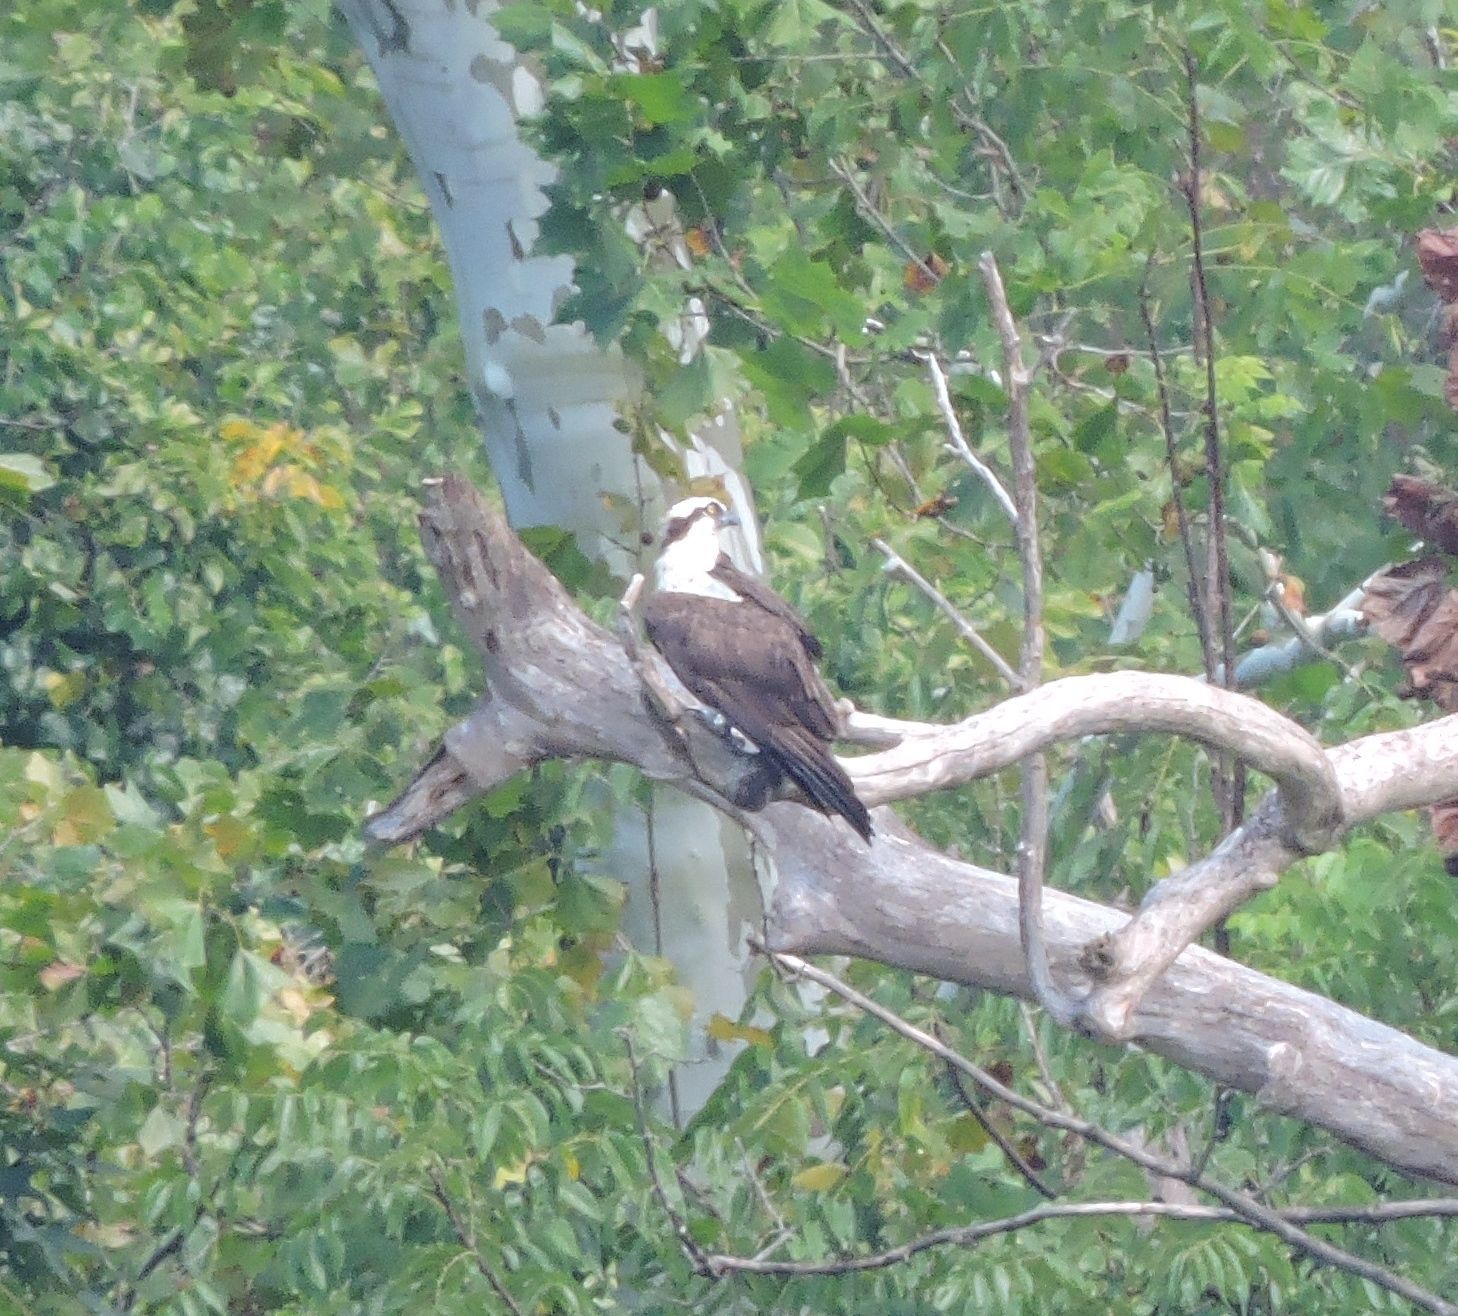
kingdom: Animalia
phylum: Chordata
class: Aves
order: Accipitriformes
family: Pandionidae
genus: Pandion
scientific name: Pandion haliaetus
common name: Osprey
